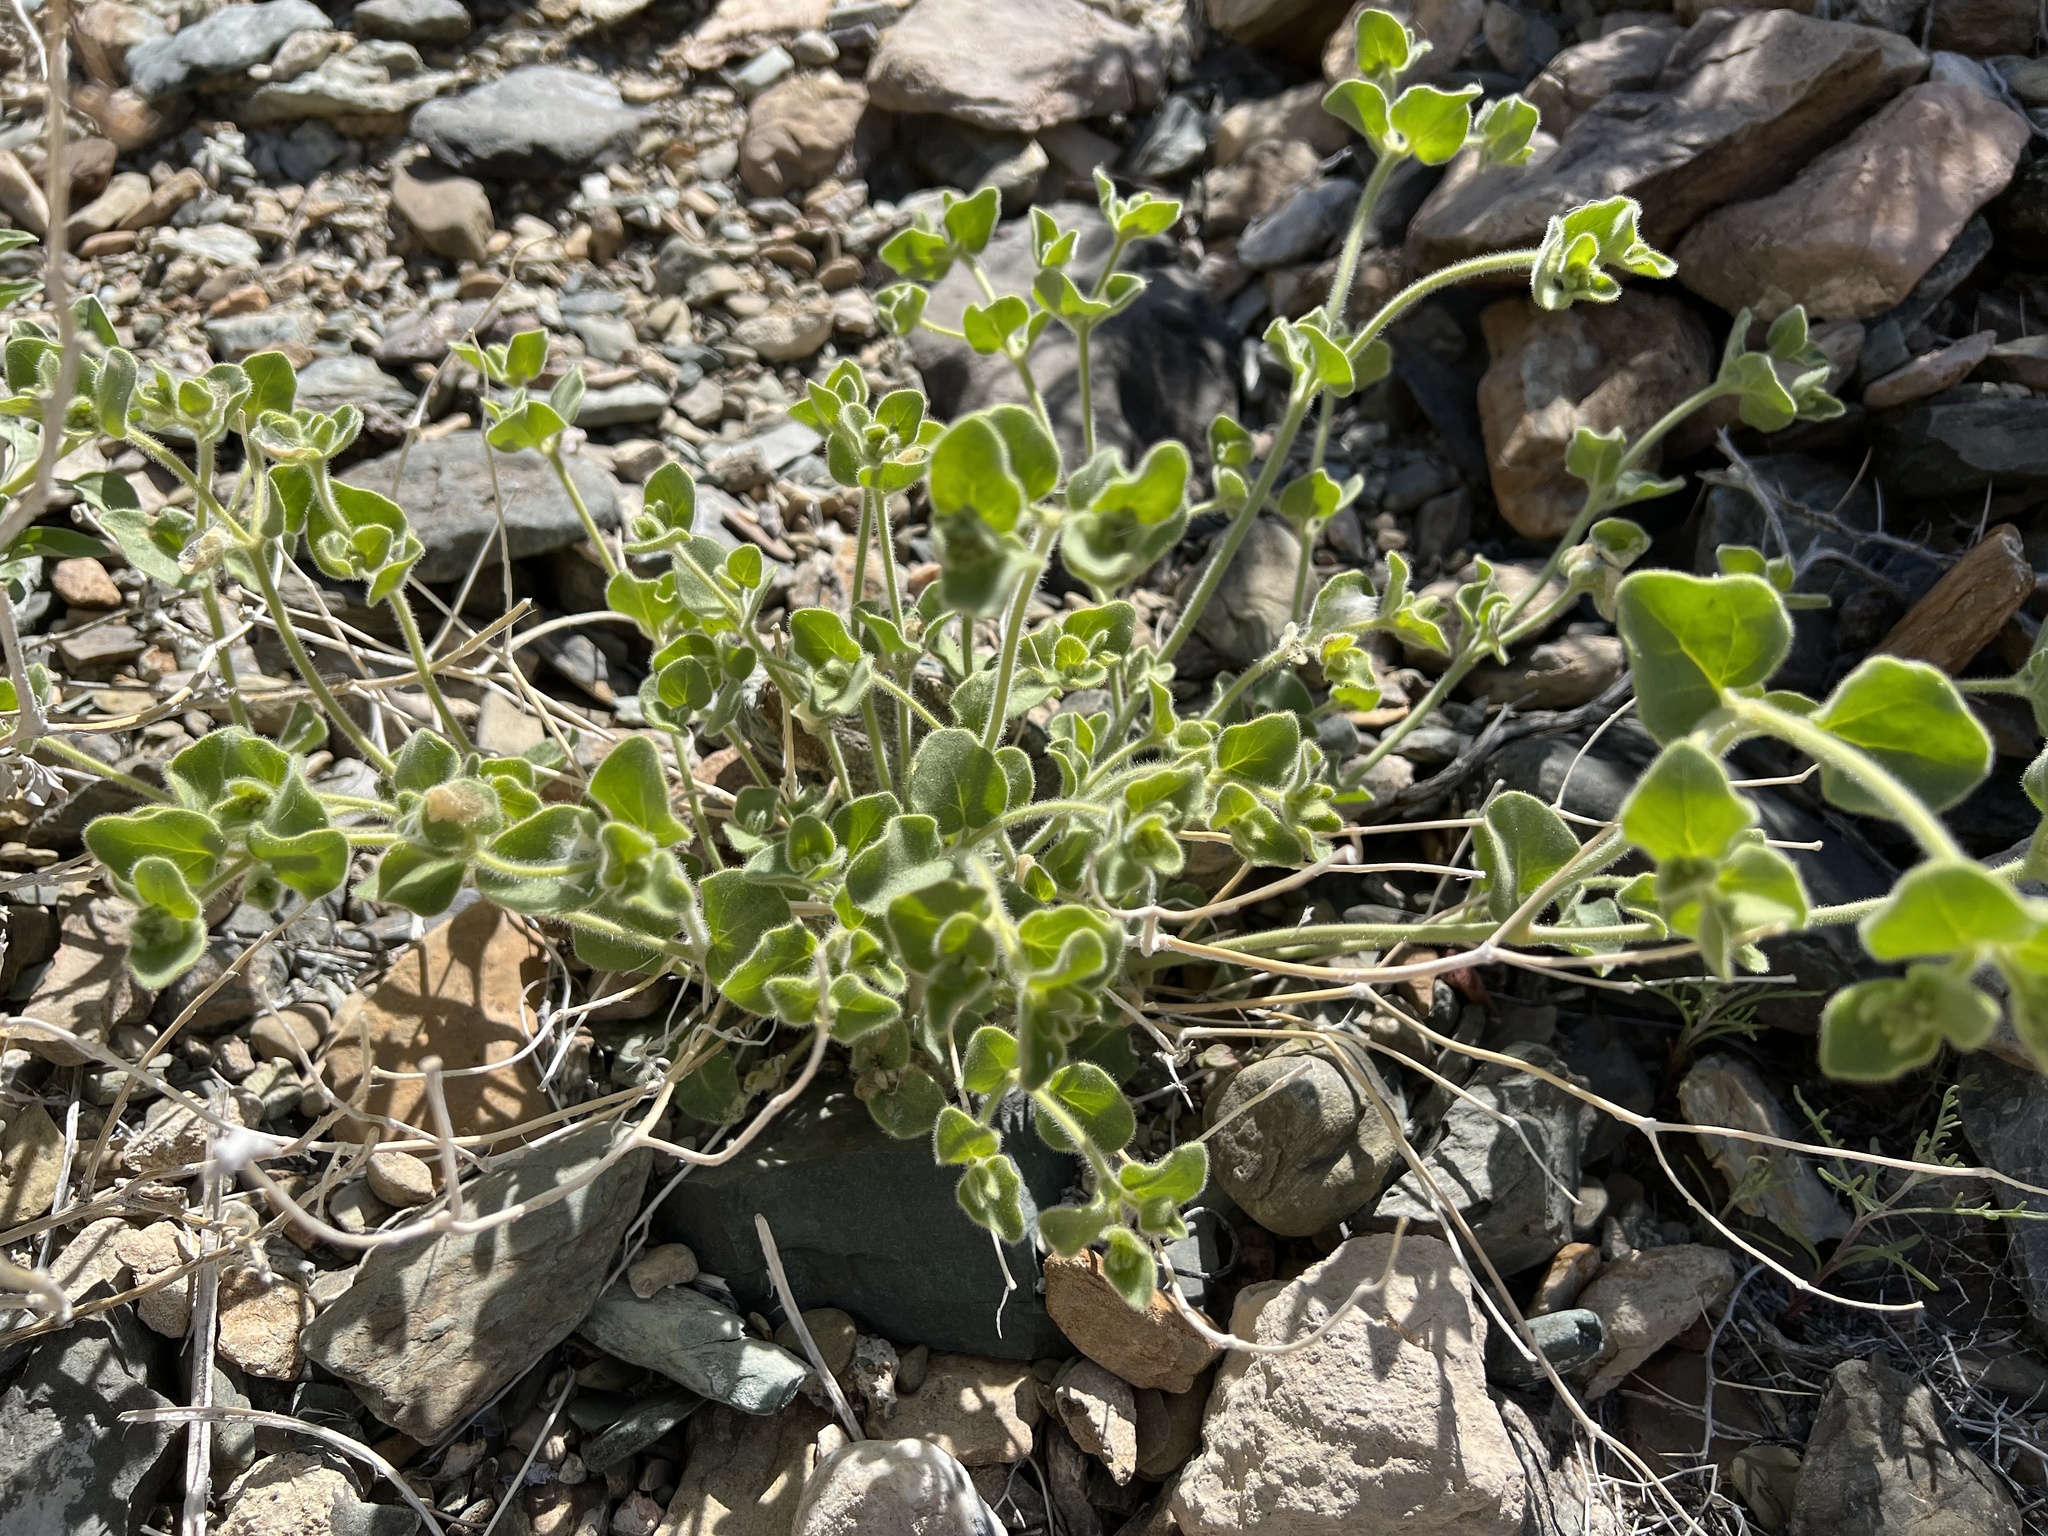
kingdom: Plantae
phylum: Tracheophyta
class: Magnoliopsida
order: Caryophyllales
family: Nyctaginaceae
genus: Mirabilis
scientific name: Mirabilis laevis
